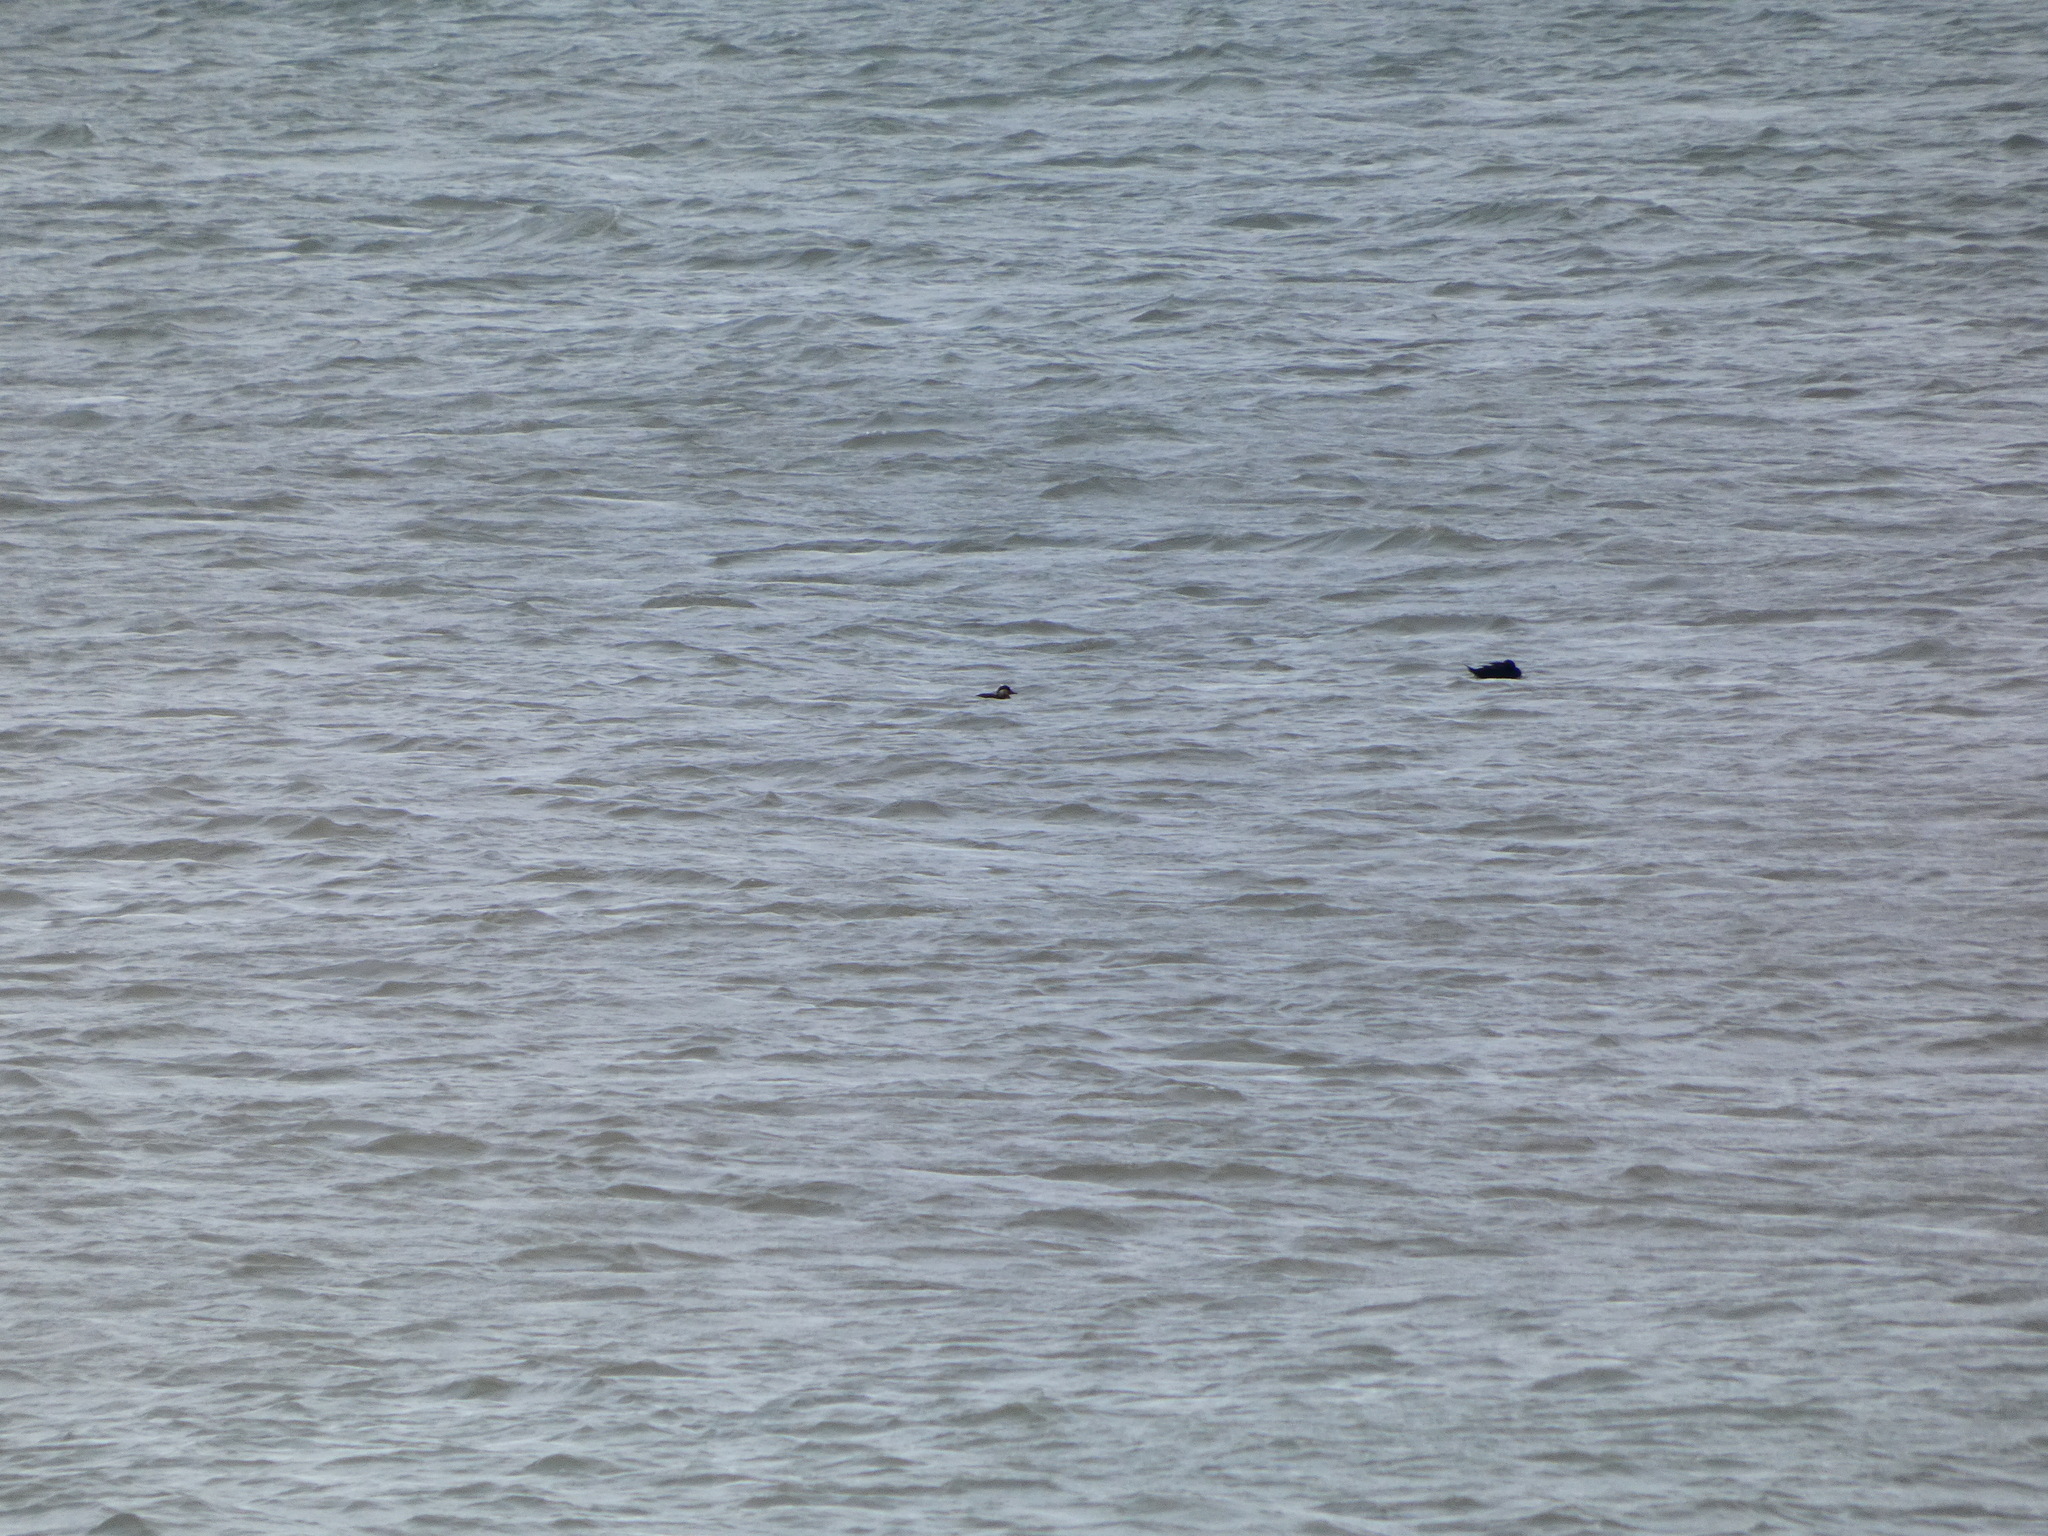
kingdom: Animalia
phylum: Chordata
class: Aves
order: Anseriformes
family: Anatidae
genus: Melanitta
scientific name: Melanitta nigra
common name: Common scoter
